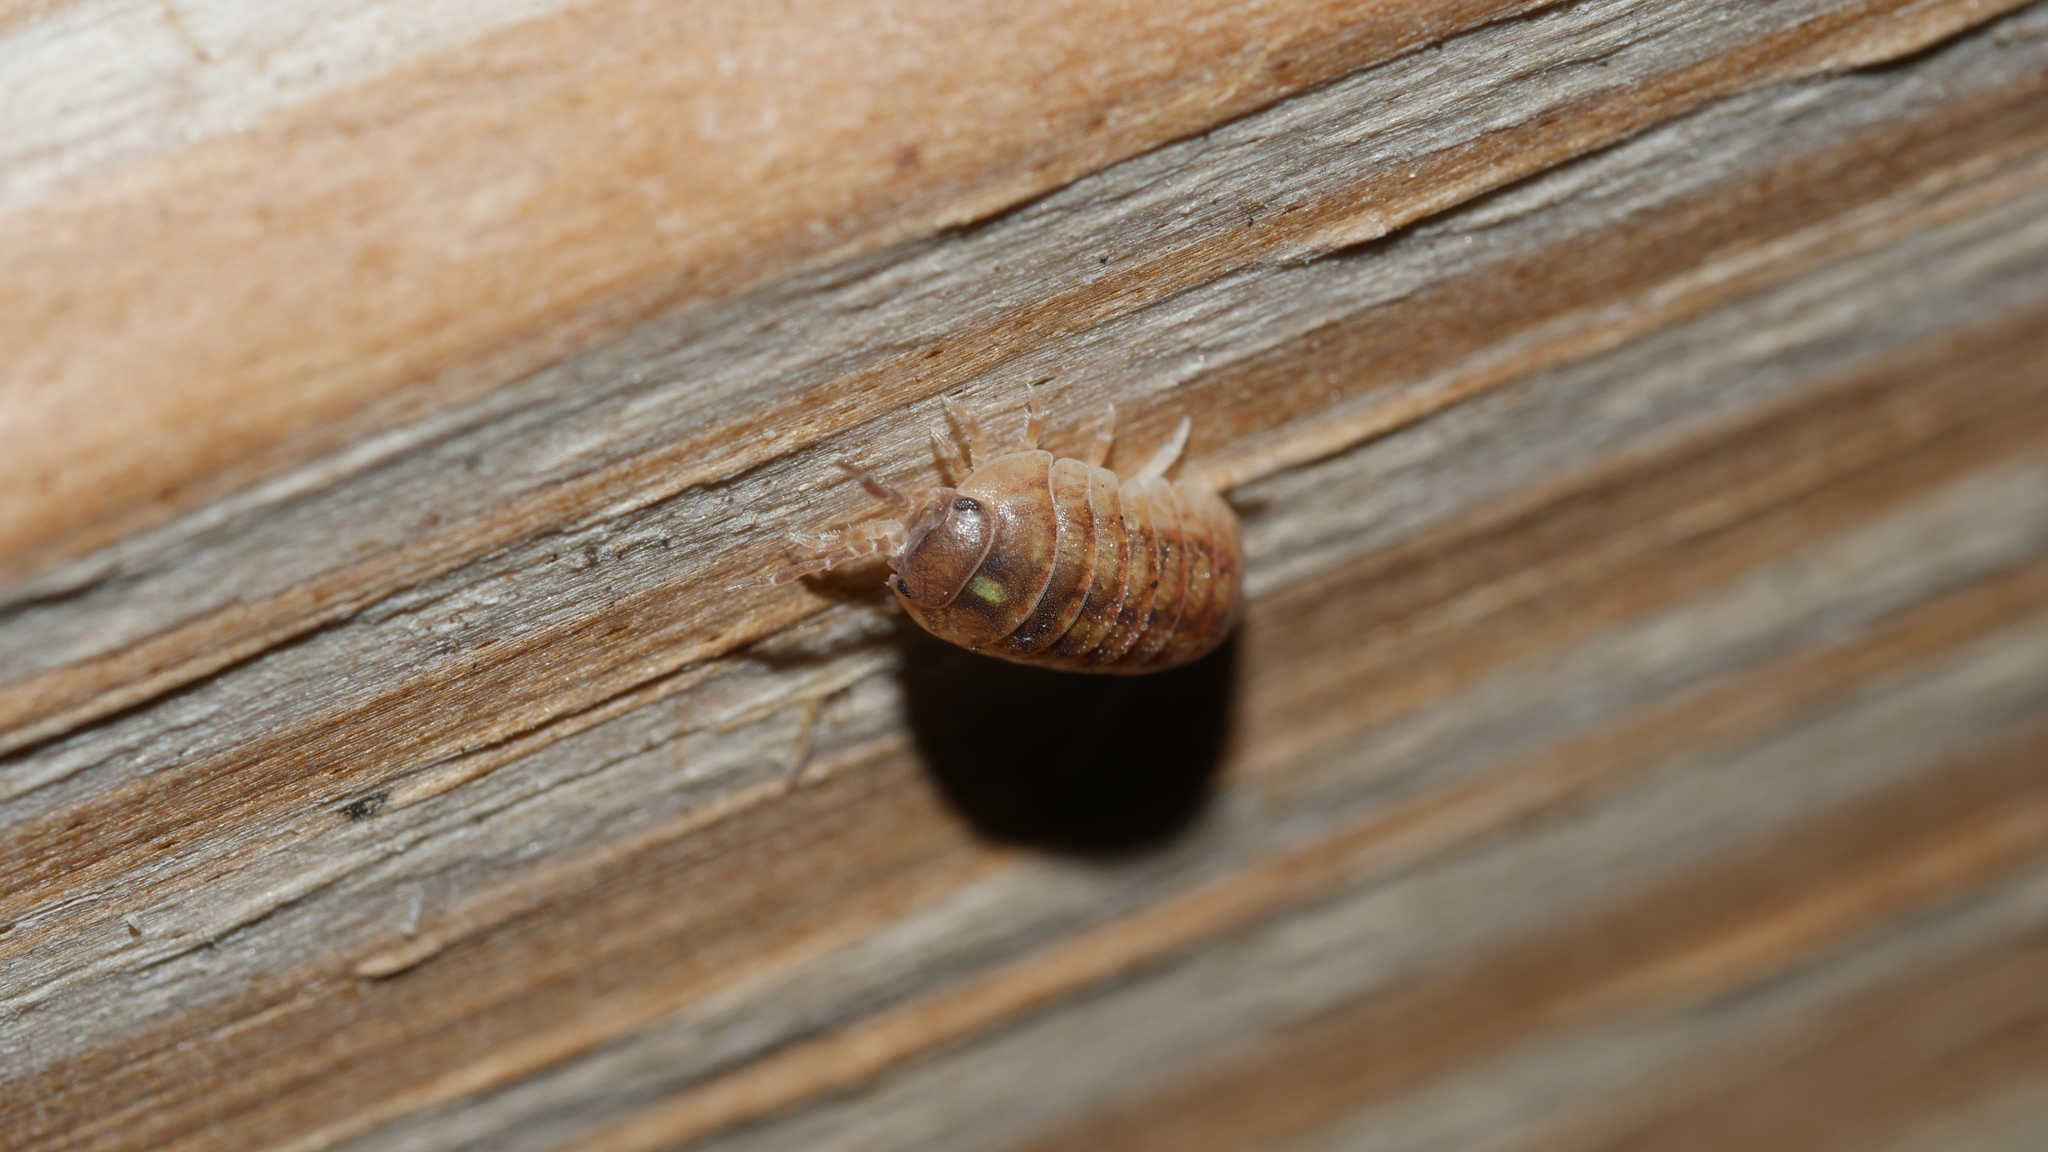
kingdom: Animalia
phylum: Arthropoda
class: Malacostraca
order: Isopoda
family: Armadillidiidae
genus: Armadillidium
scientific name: Armadillidium vulgare
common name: Common pill woodlouse
